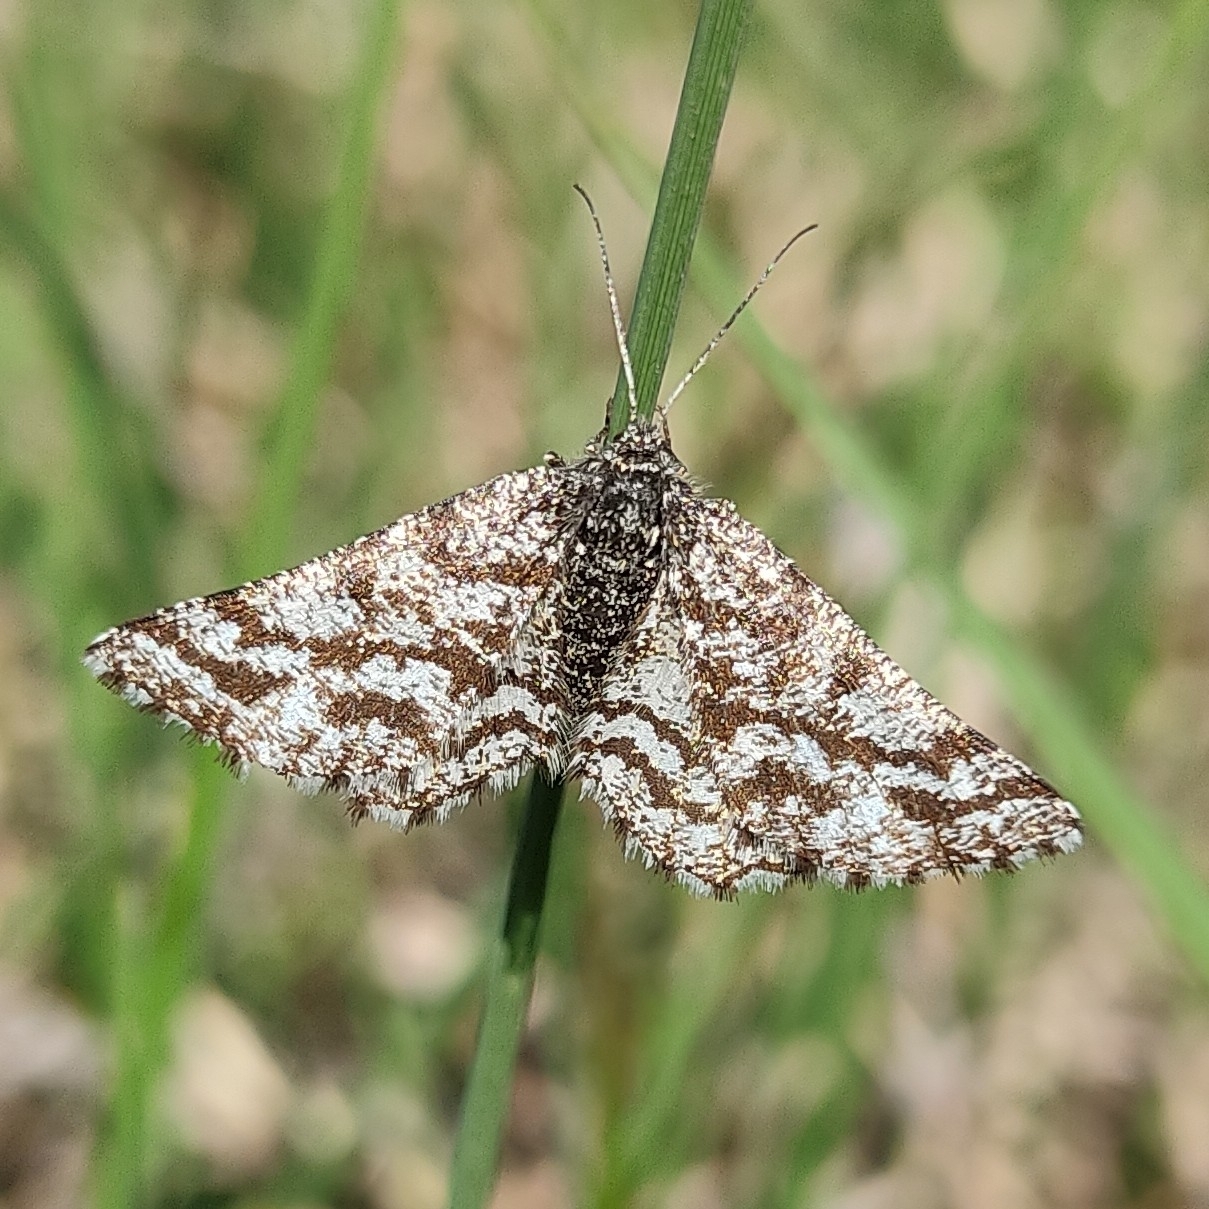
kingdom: Animalia
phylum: Arthropoda
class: Insecta
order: Lepidoptera
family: Geometridae
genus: Ematurga
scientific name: Ematurga atomaria
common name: Common heath
